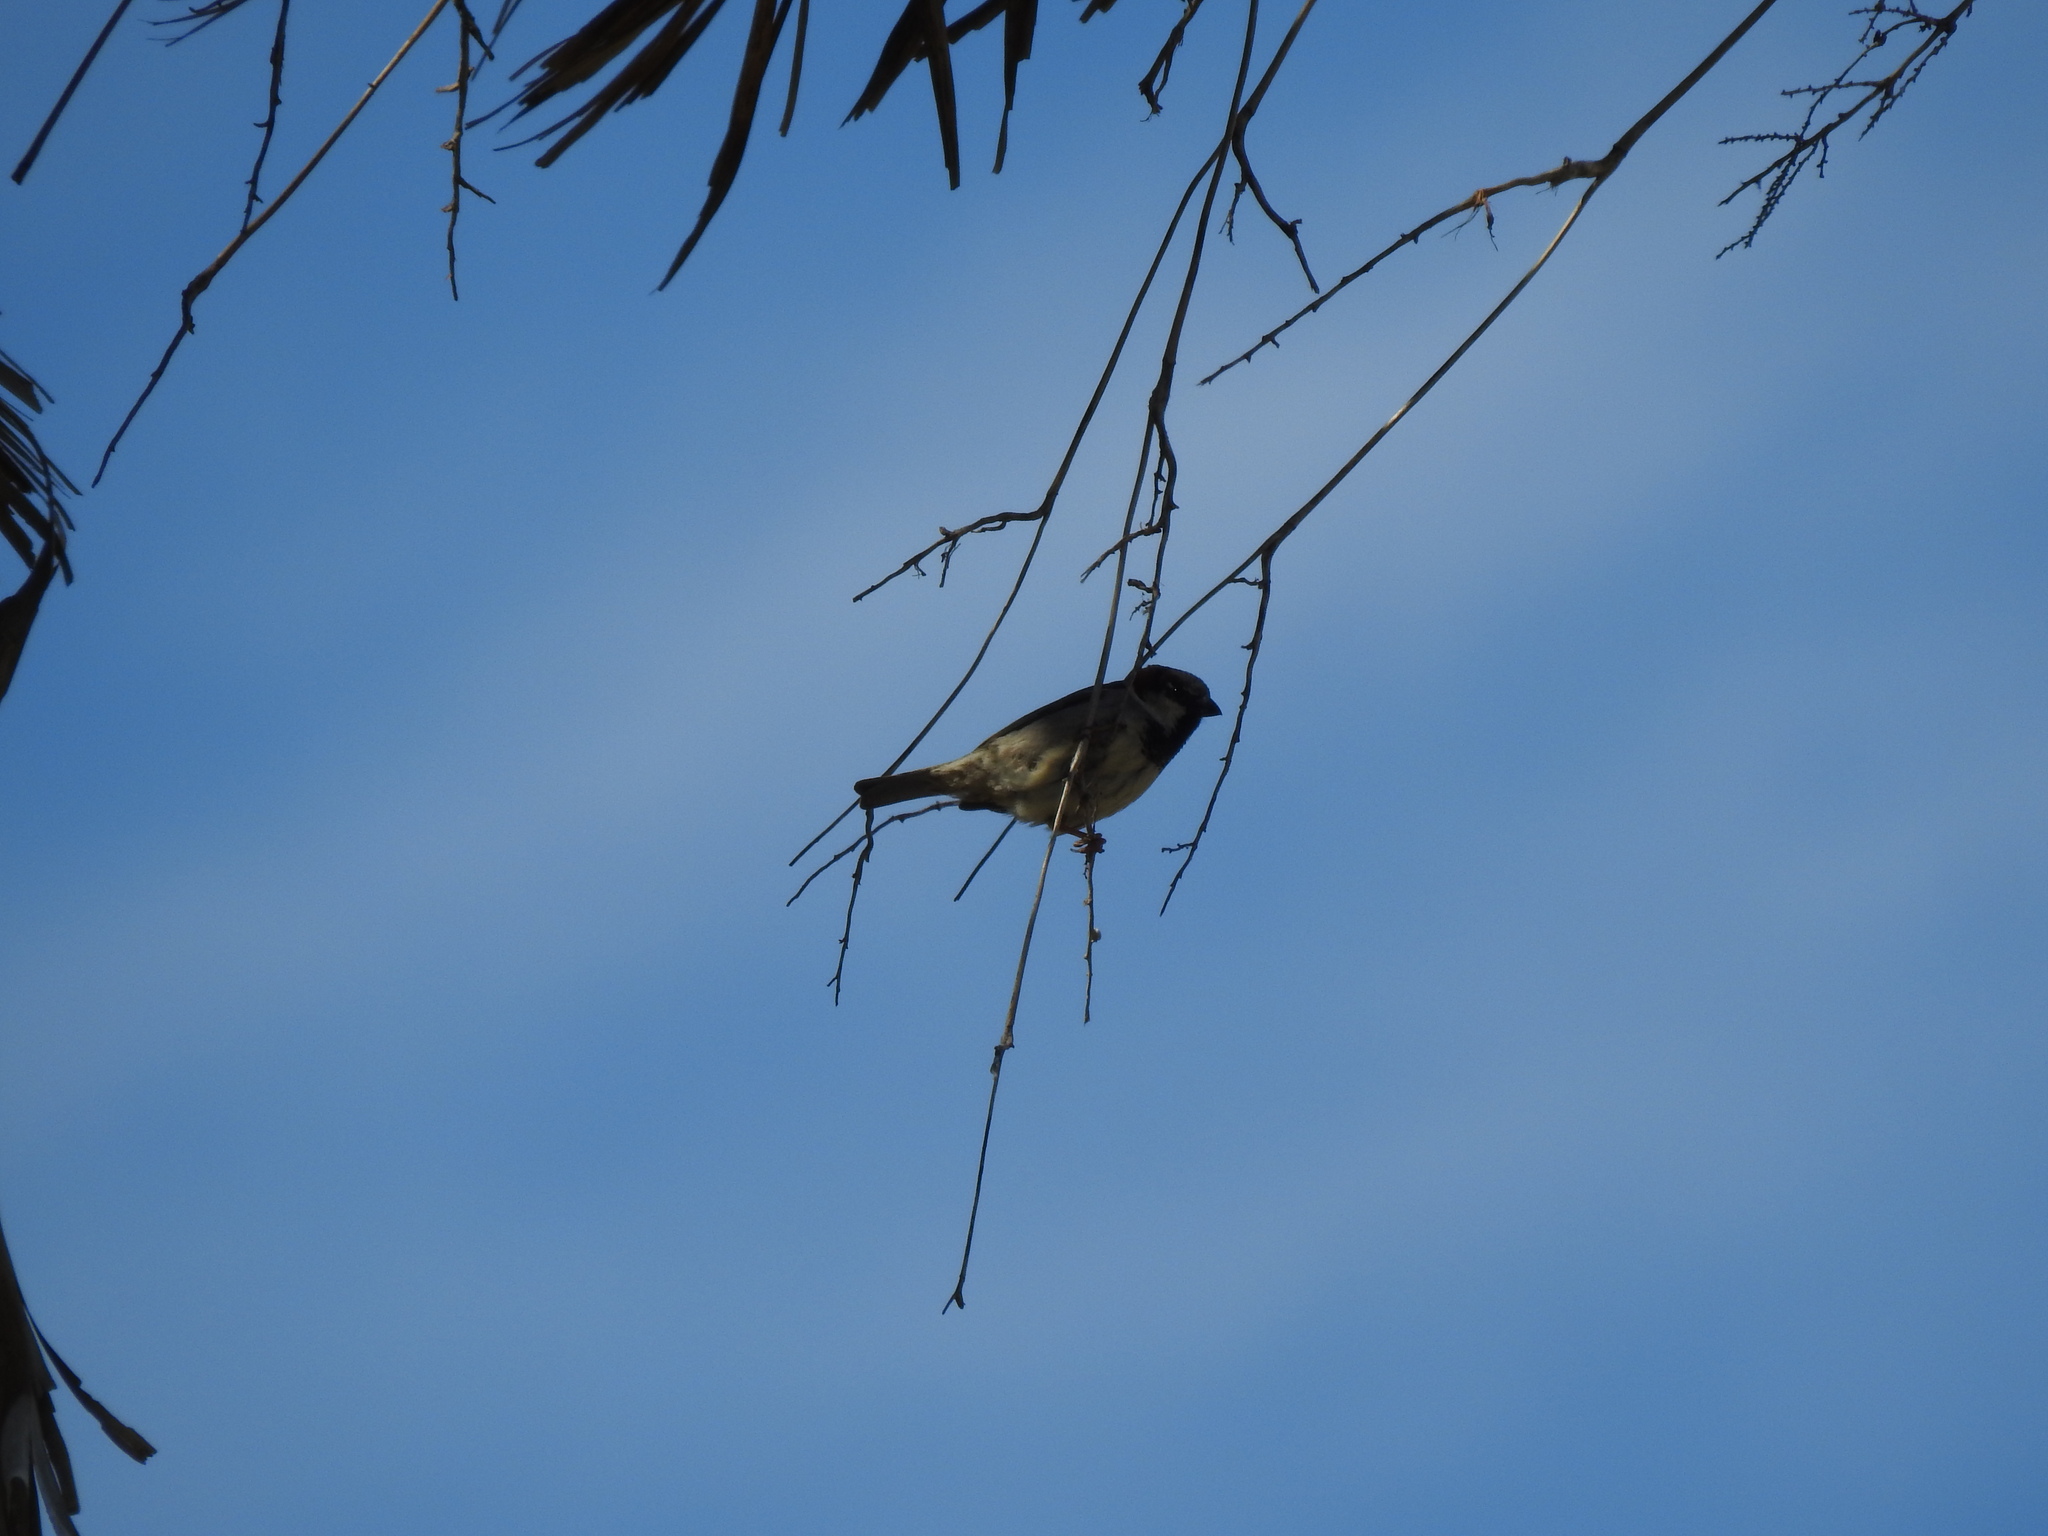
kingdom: Animalia
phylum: Chordata
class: Aves
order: Passeriformes
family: Passeridae
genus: Passer
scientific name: Passer domesticus
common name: House sparrow
